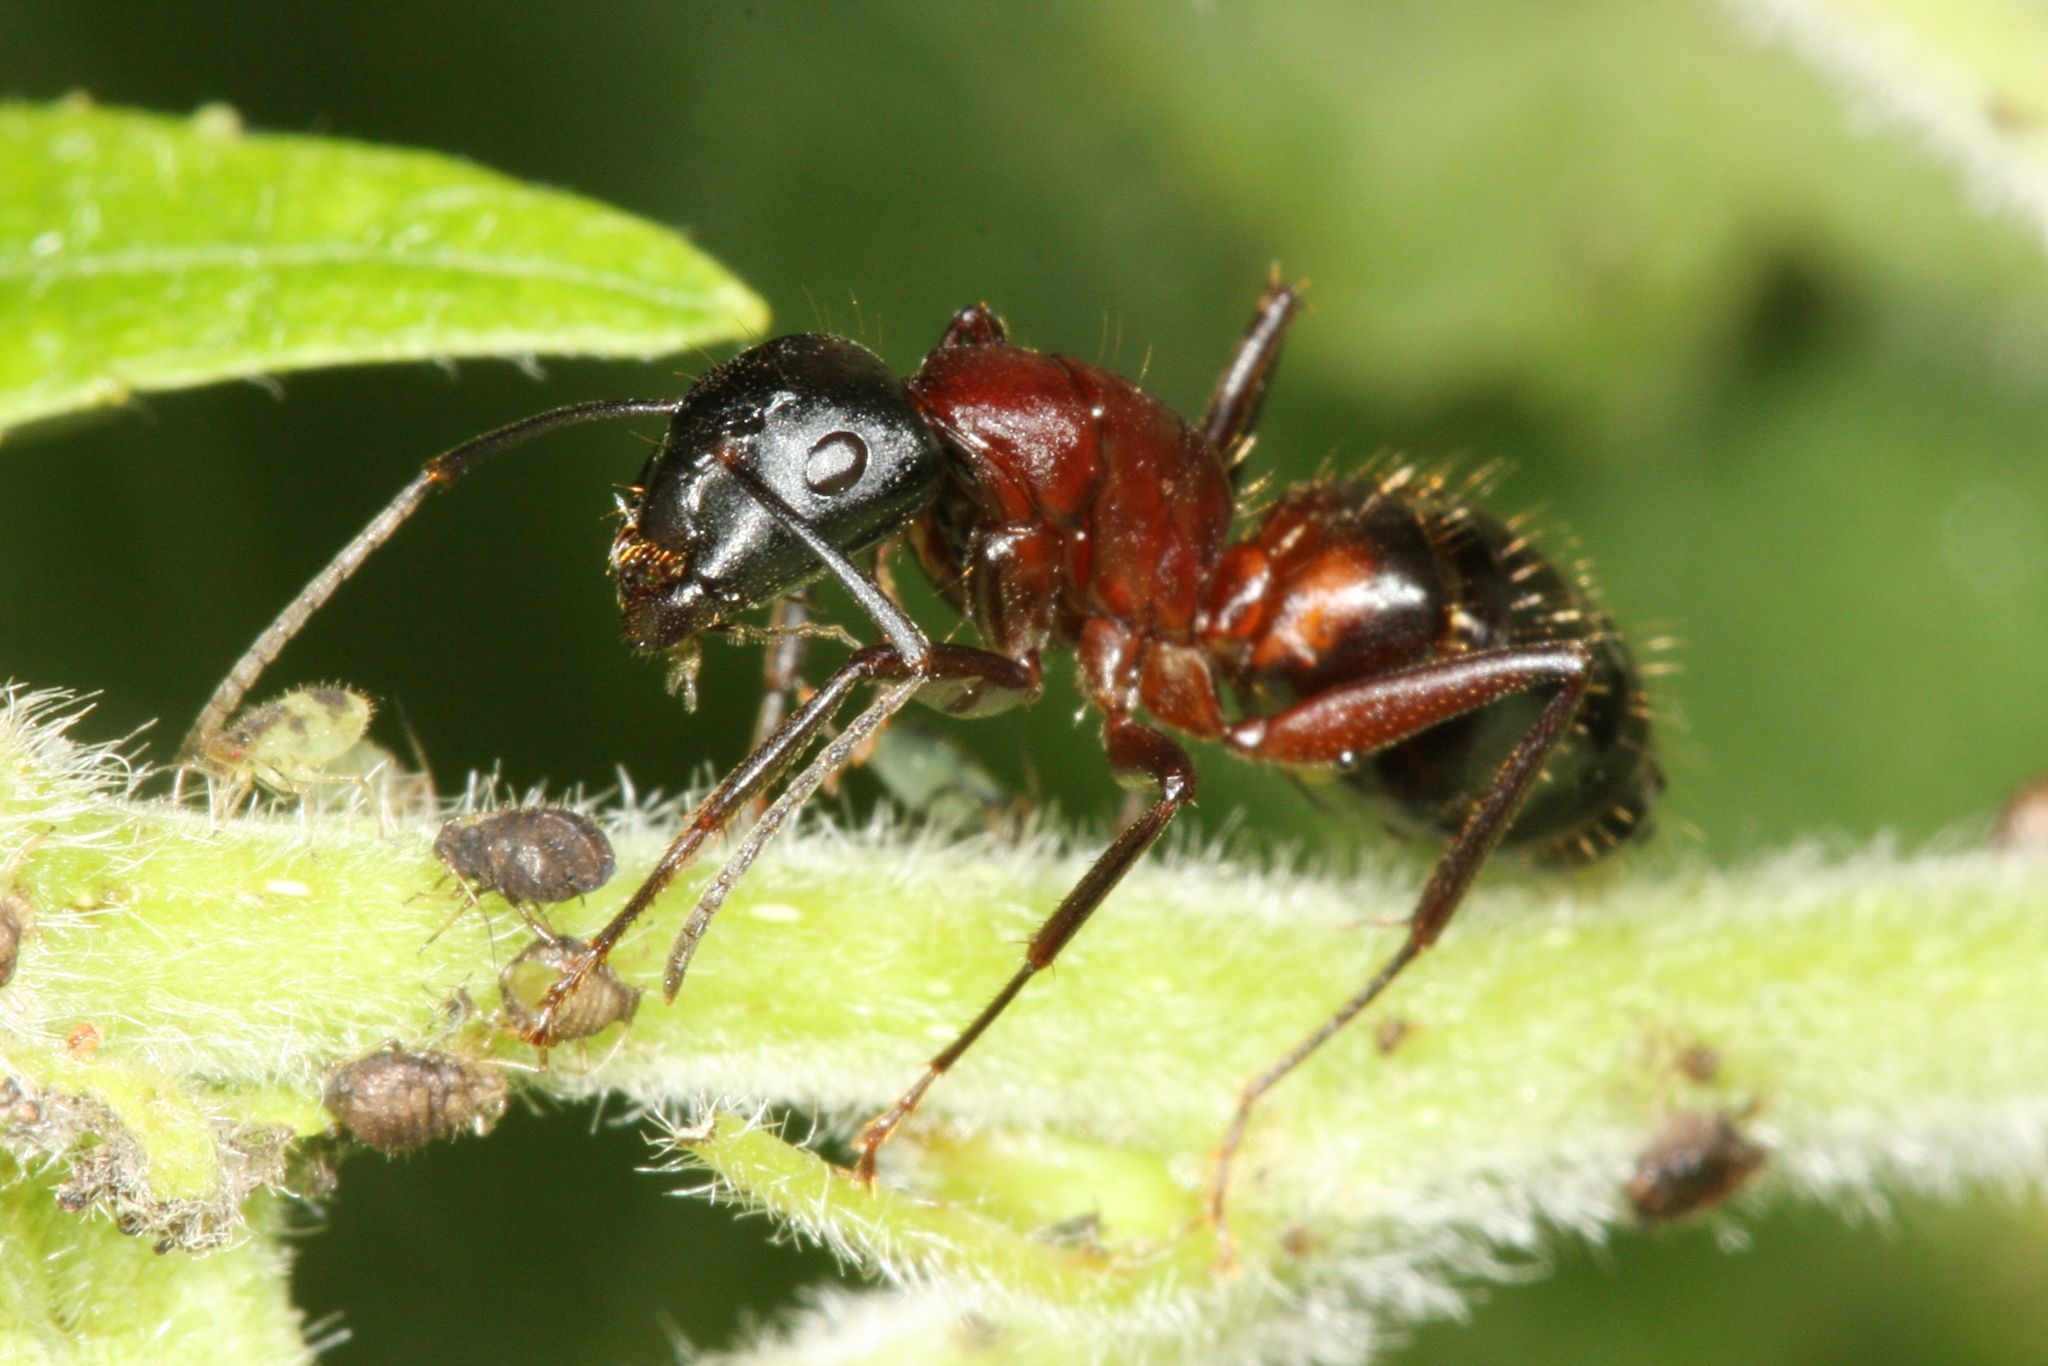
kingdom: Animalia
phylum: Arthropoda
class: Insecta
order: Hymenoptera
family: Formicidae
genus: Camponotus
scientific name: Camponotus ligniperdus
